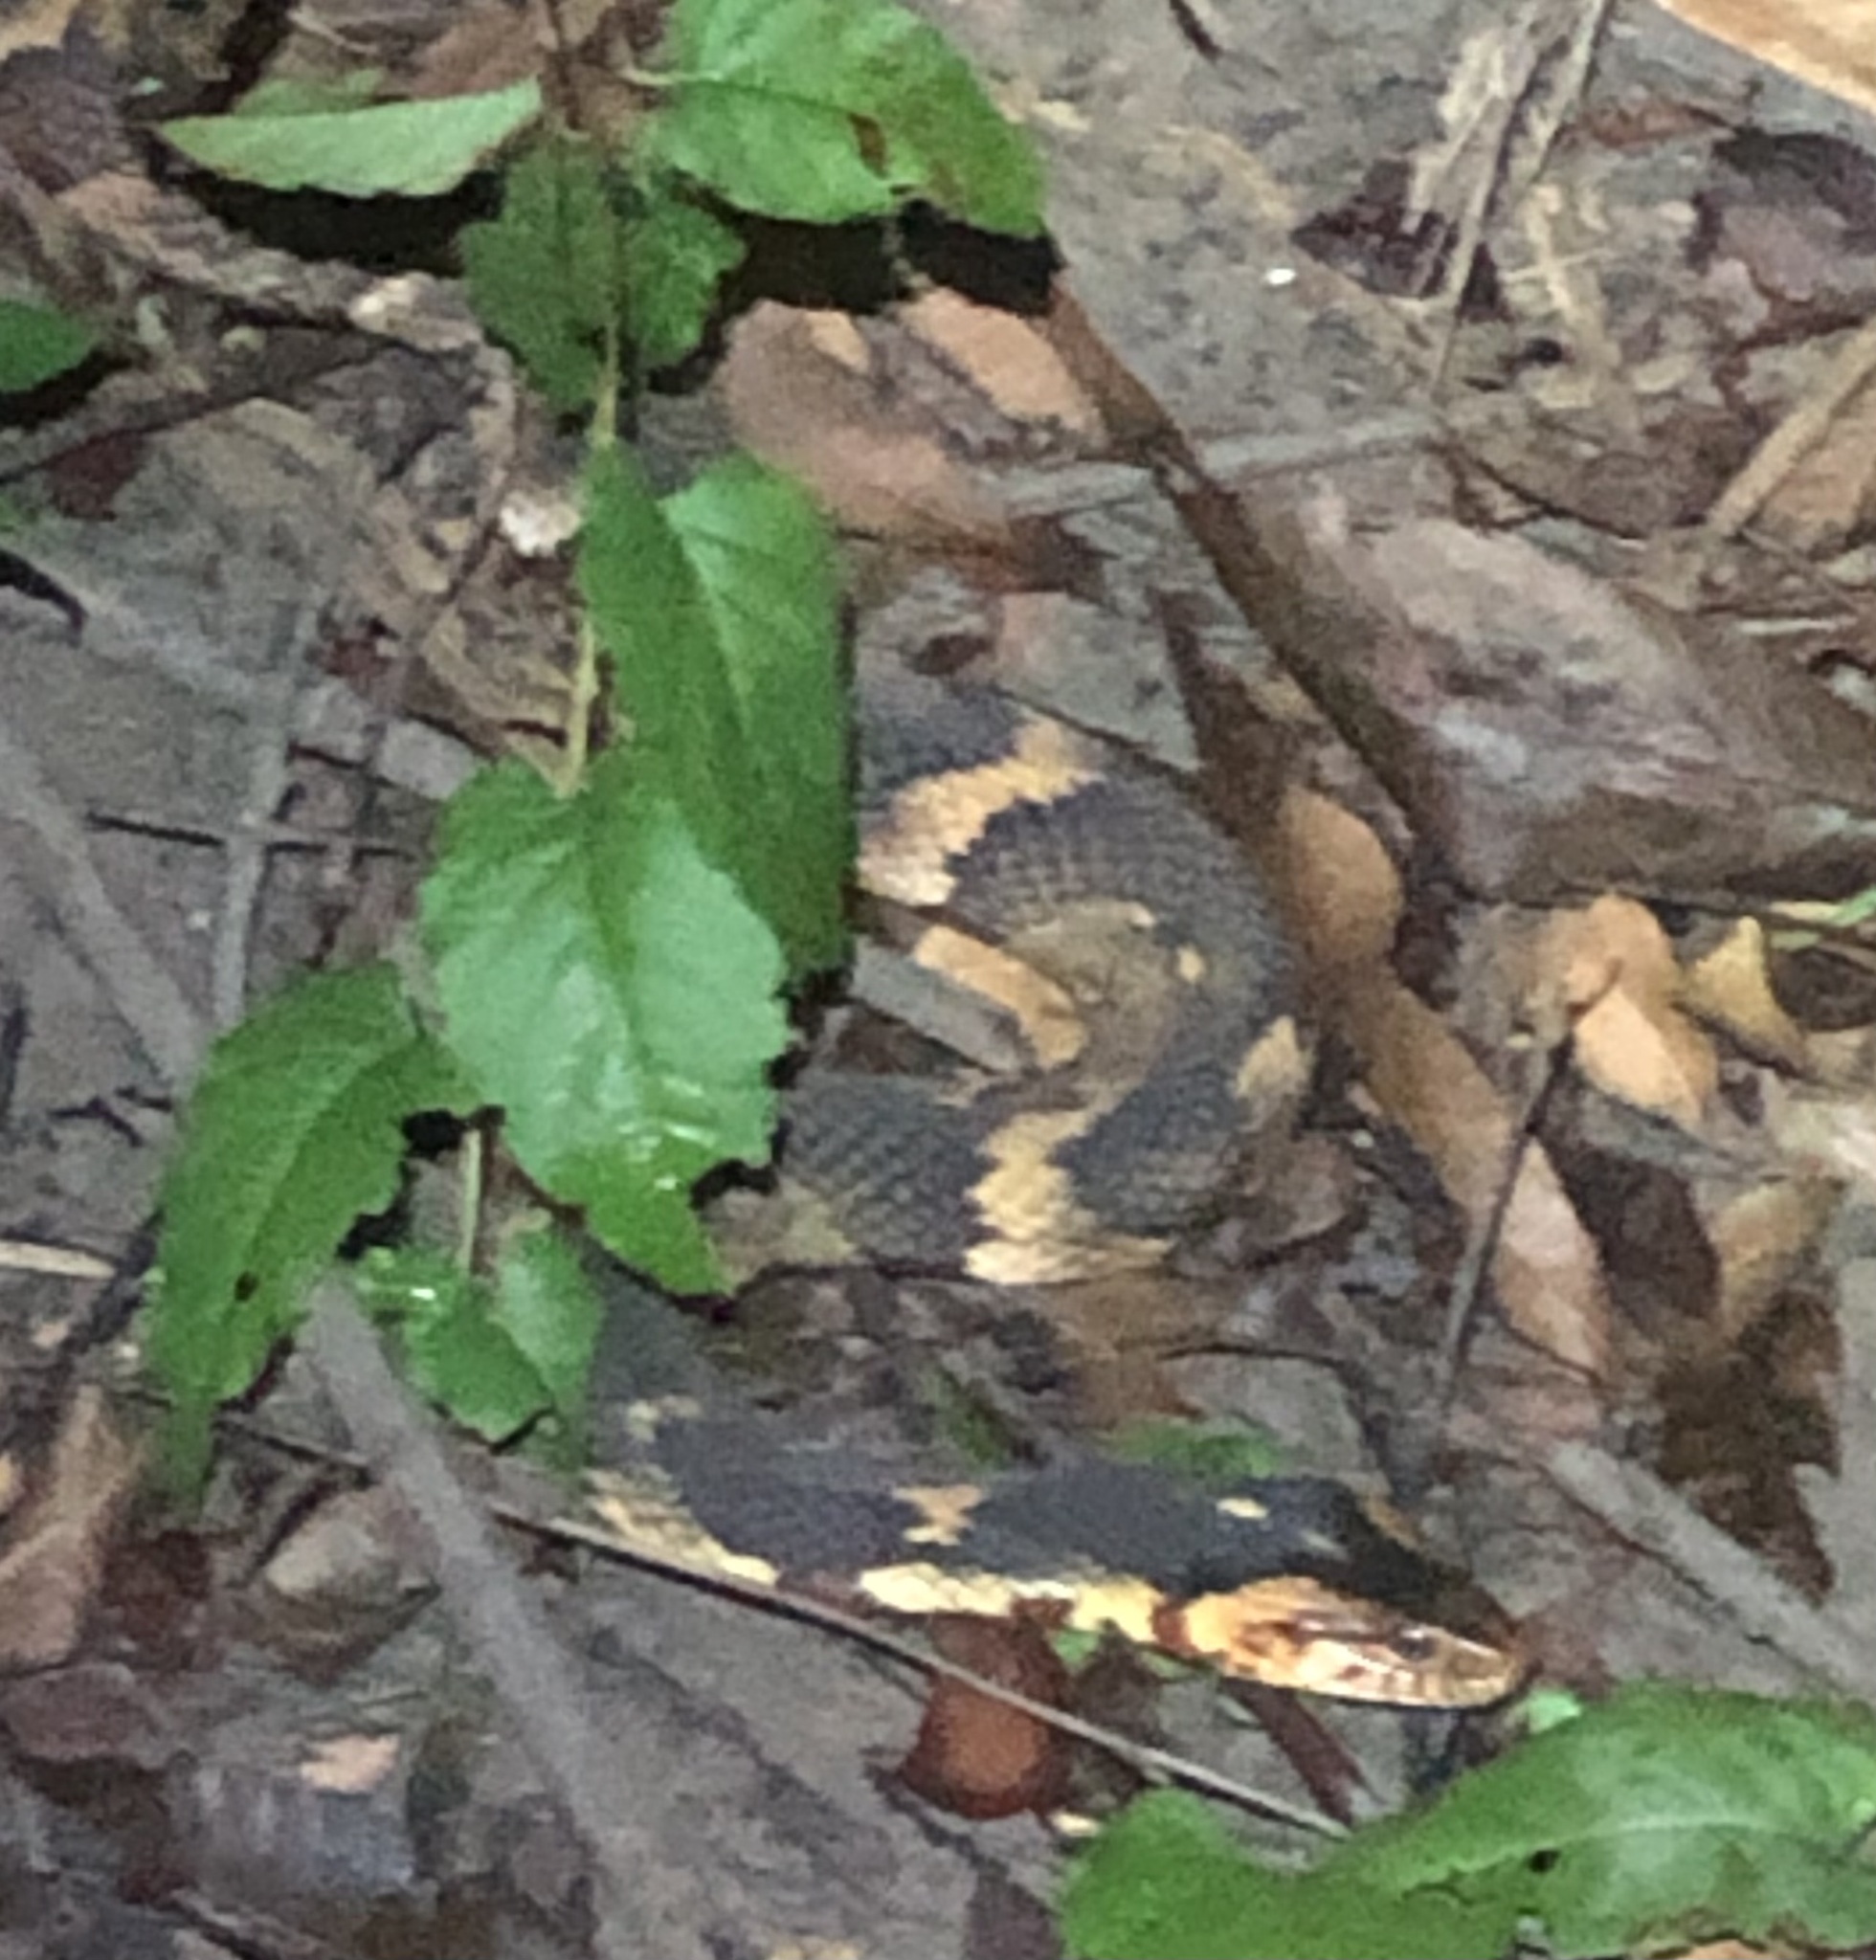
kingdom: Animalia
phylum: Chordata
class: Squamata
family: Colubridae
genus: Nerodia
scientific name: Nerodia fasciata
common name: Southern water snake
